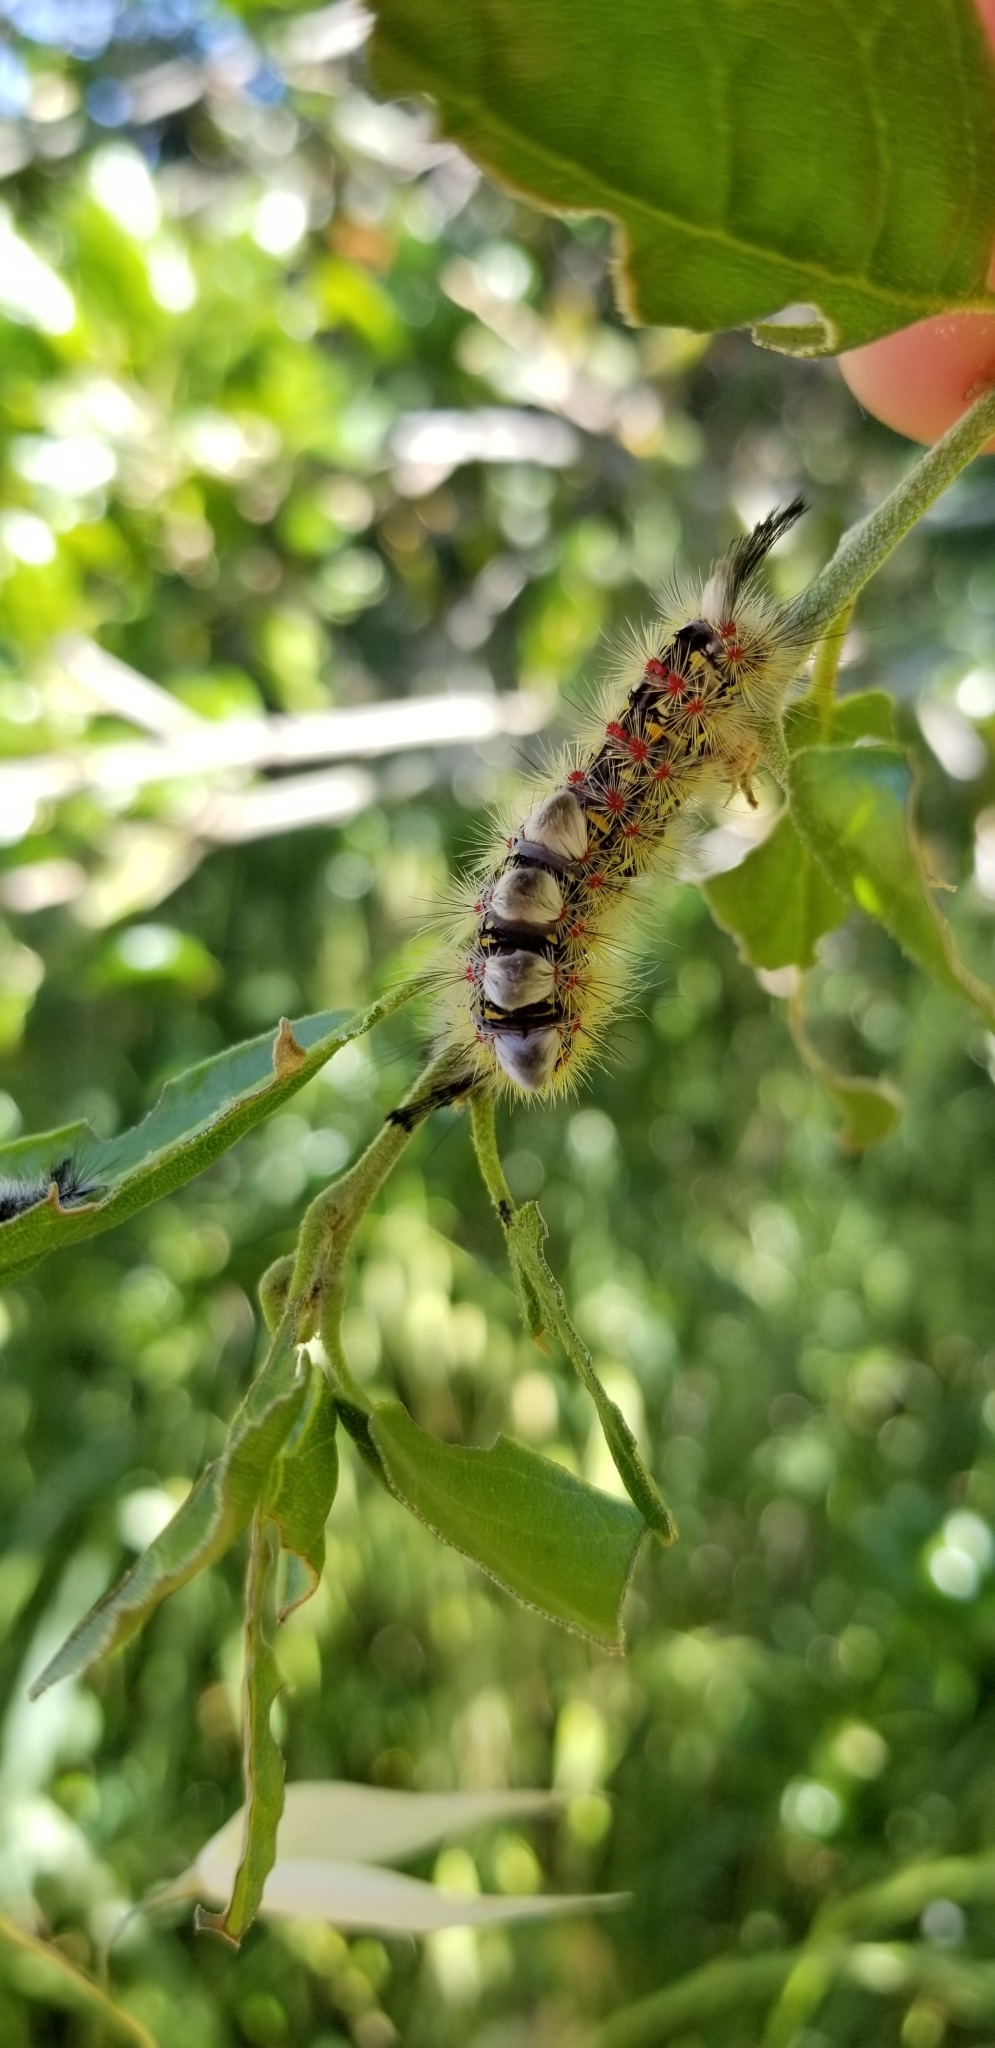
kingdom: Animalia
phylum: Arthropoda
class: Insecta
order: Lepidoptera
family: Erebidae
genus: Orgyia
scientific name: Orgyia
